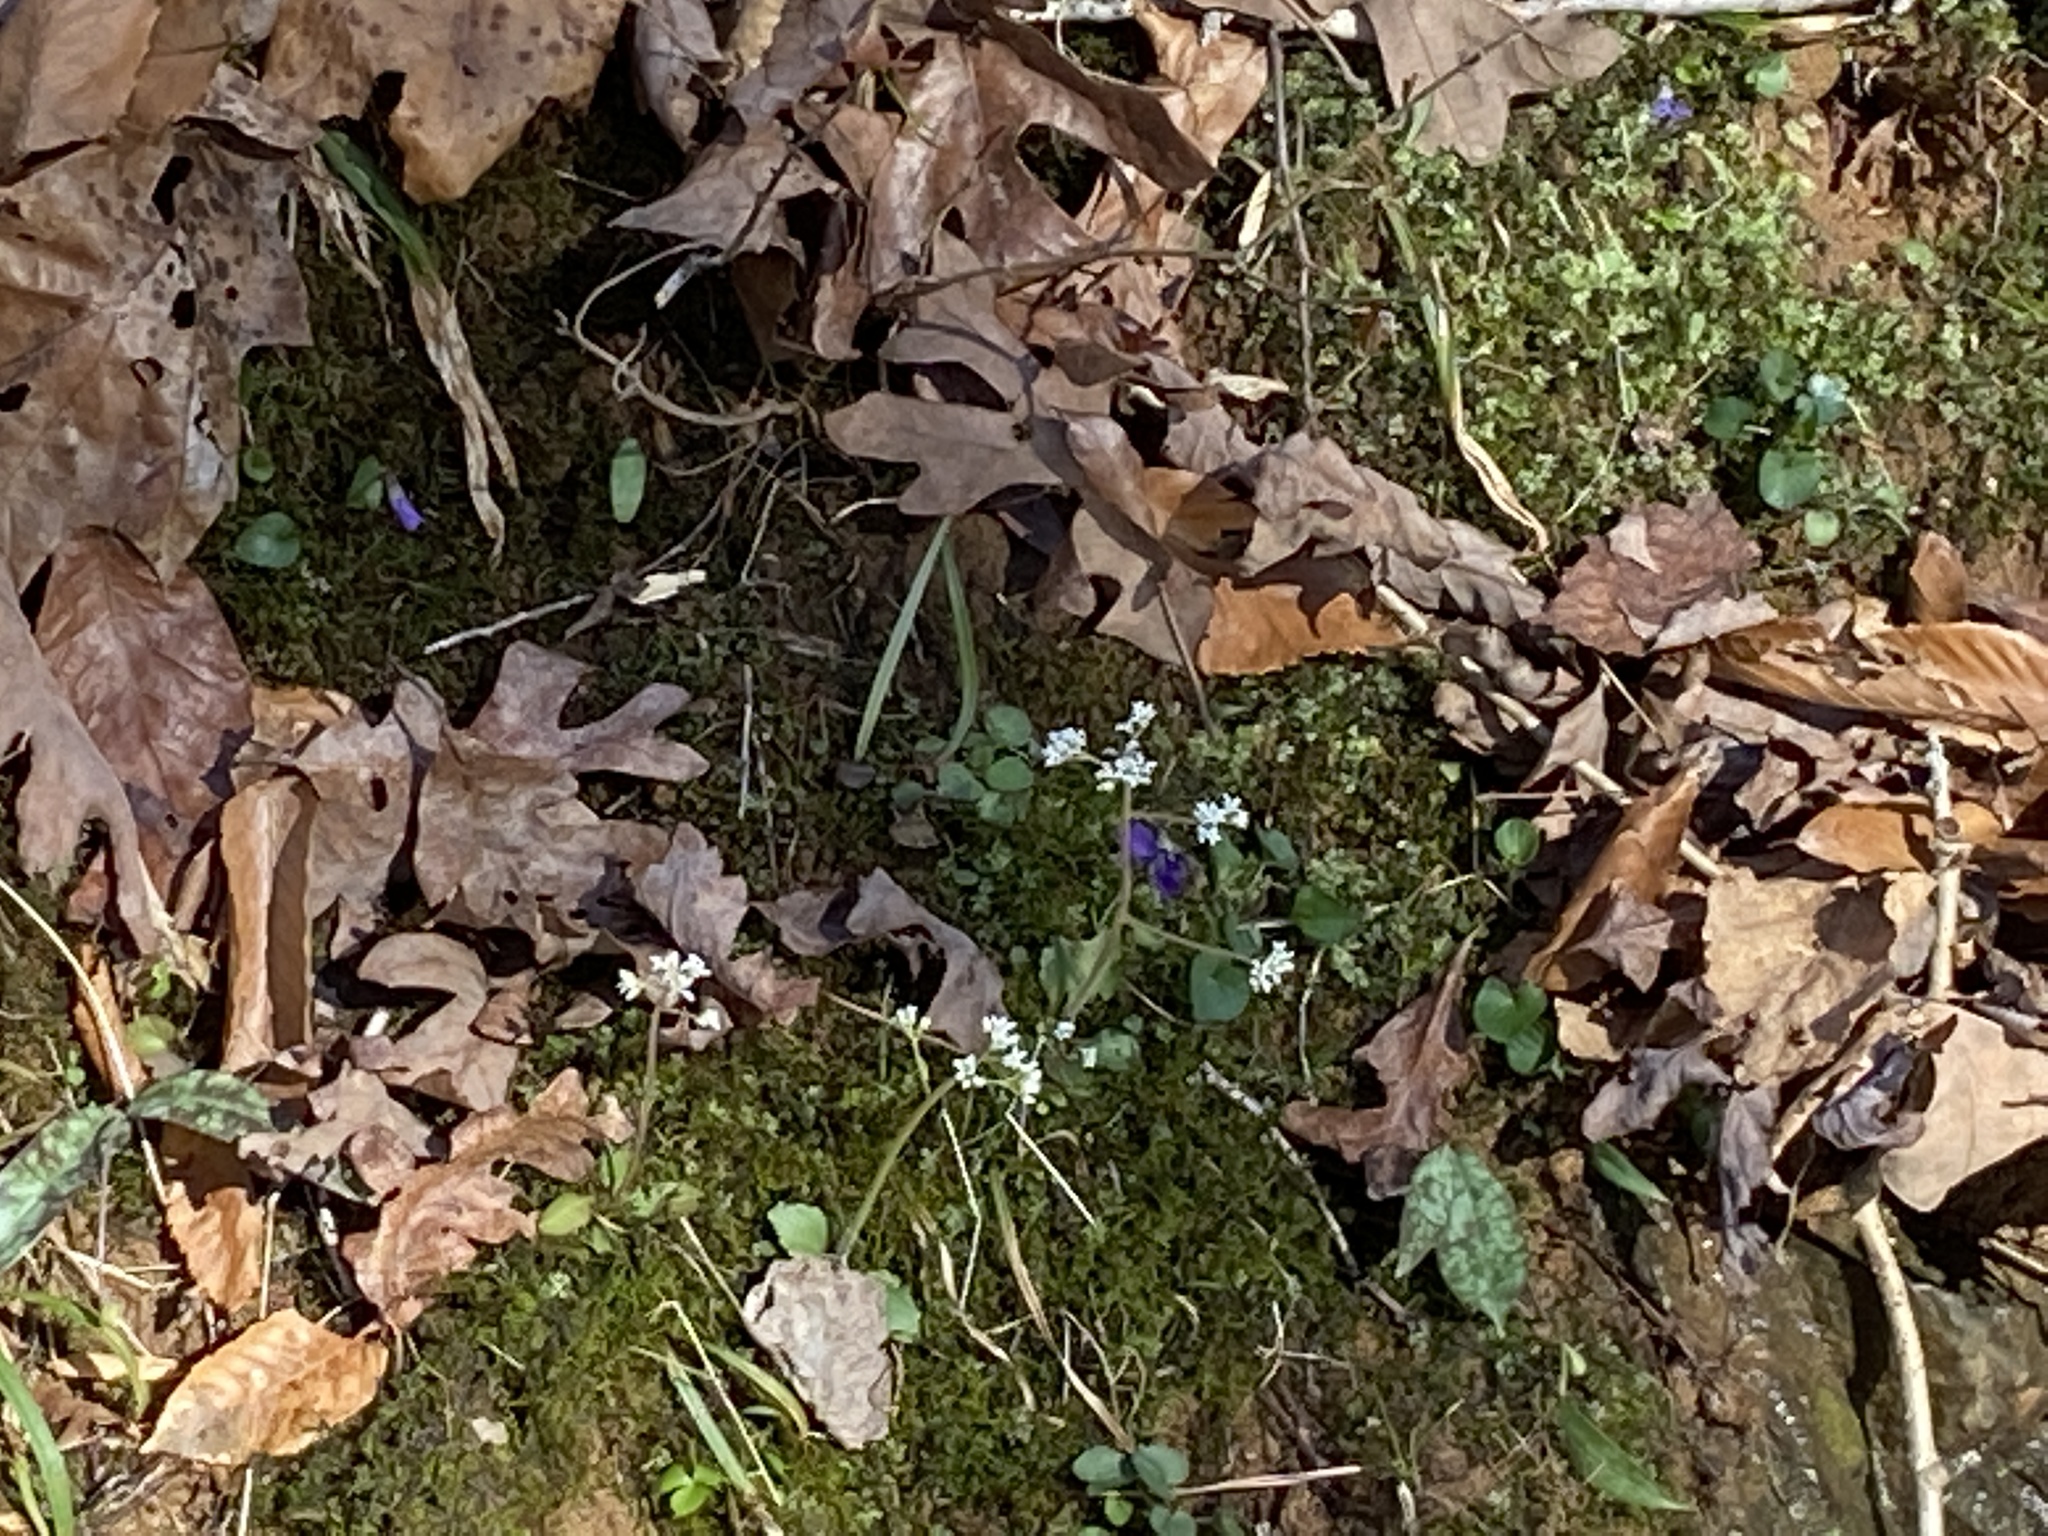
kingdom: Plantae
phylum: Tracheophyta
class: Magnoliopsida
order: Saxifragales
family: Saxifragaceae
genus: Micranthes
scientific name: Micranthes virginiensis
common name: Early saxifrage
